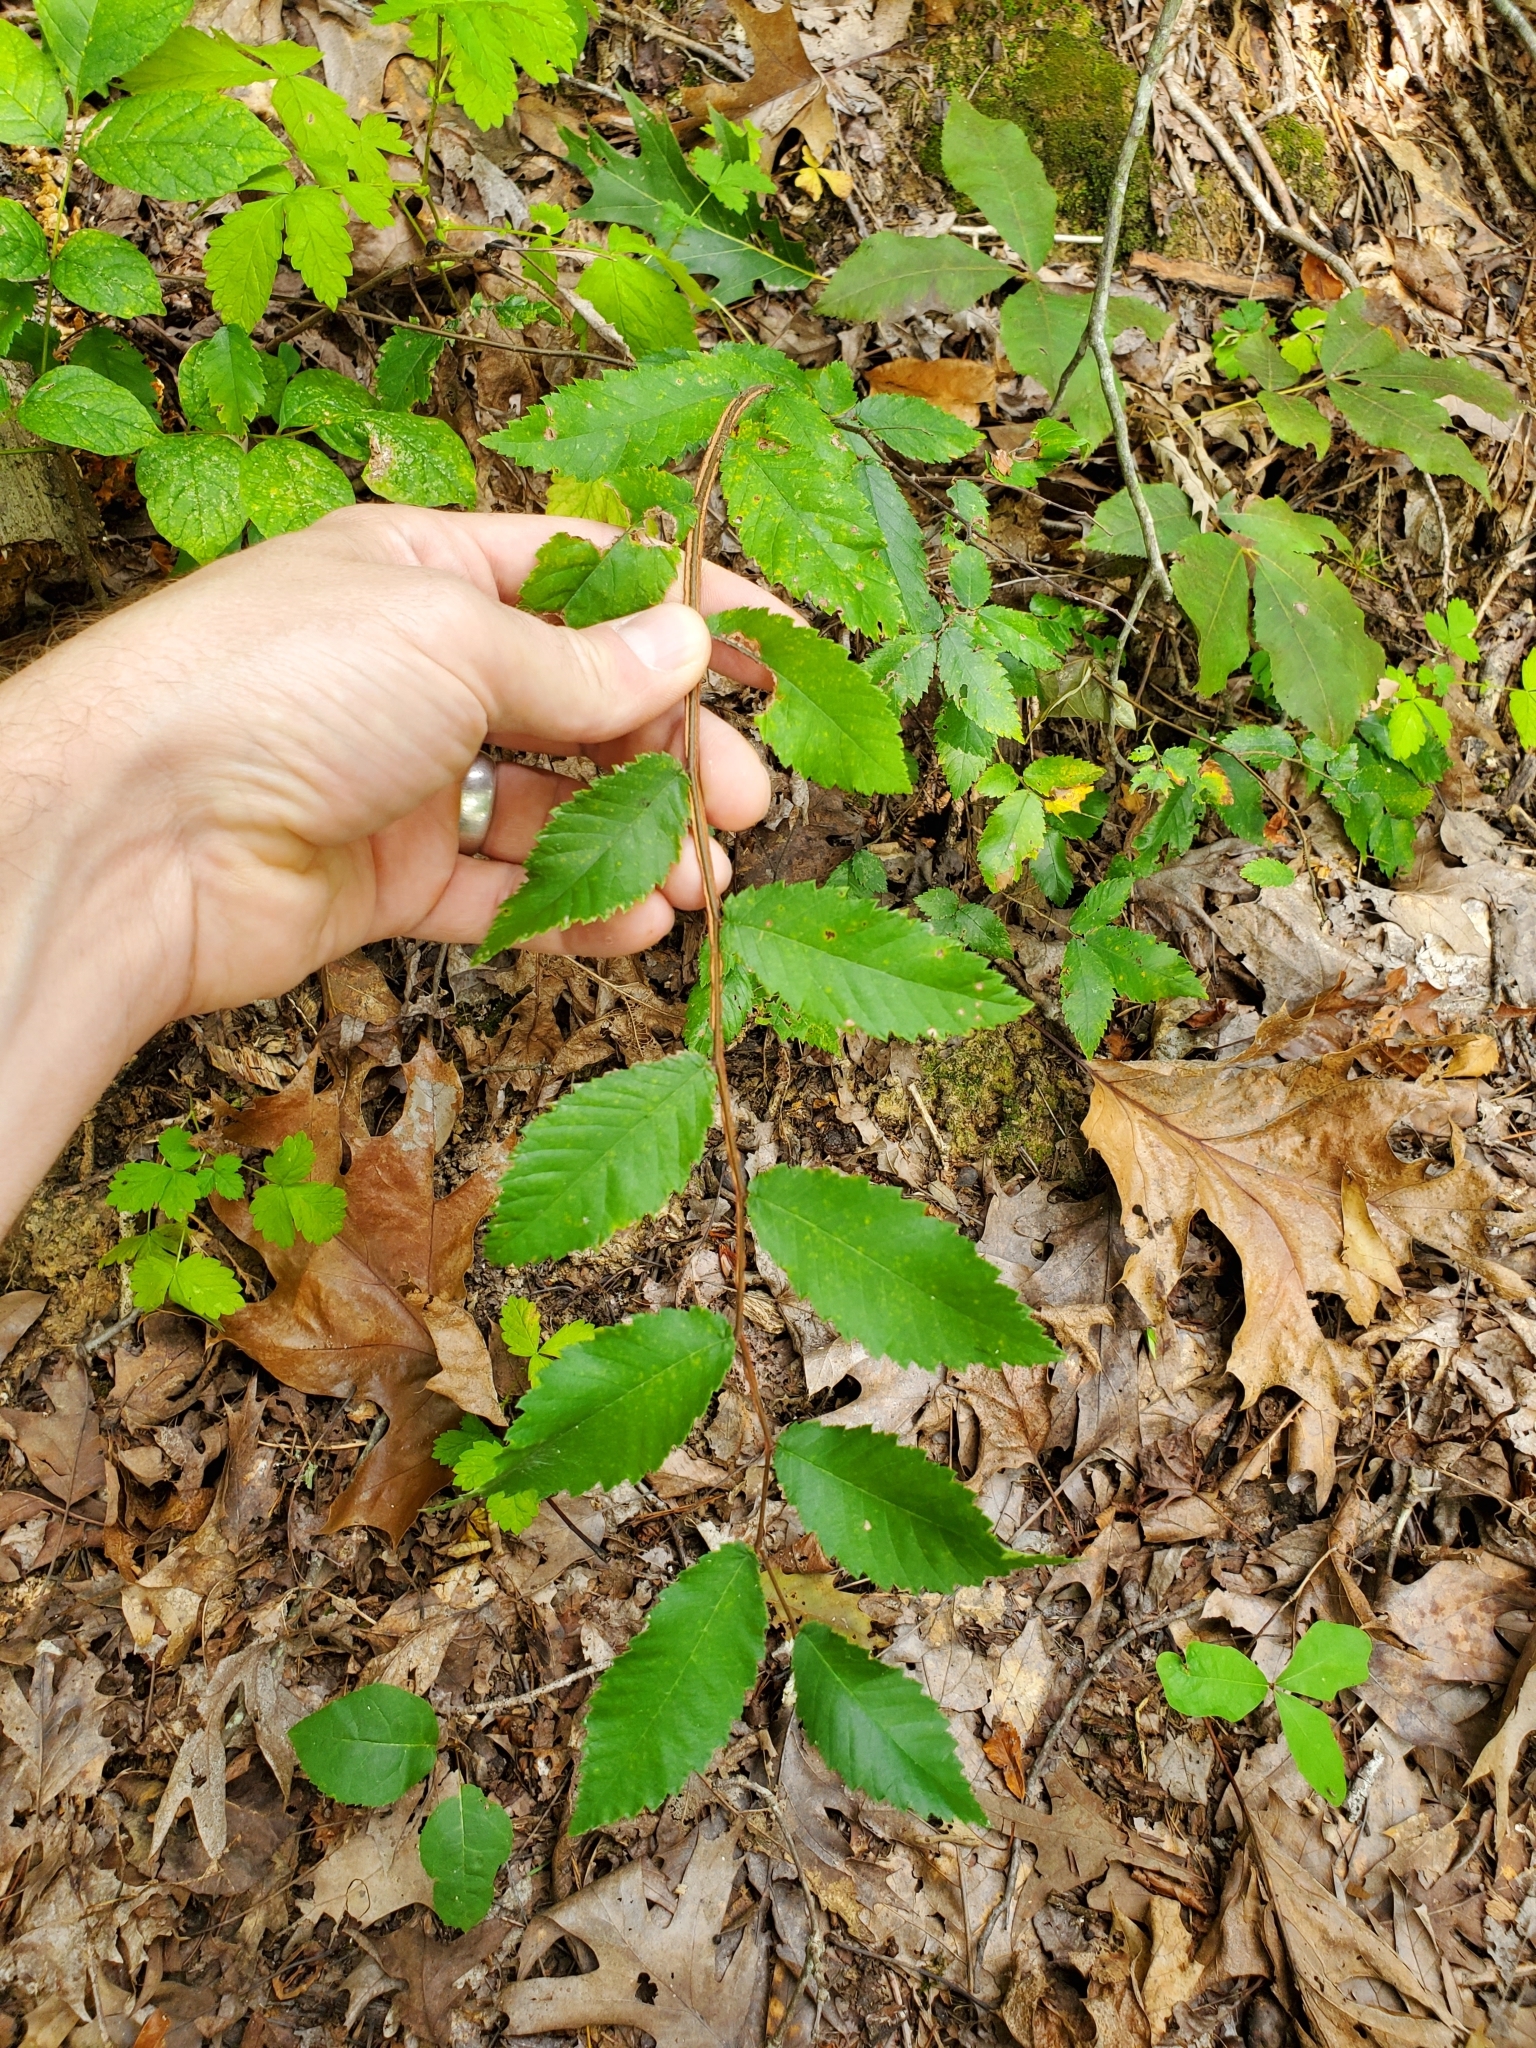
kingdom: Plantae
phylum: Tracheophyta
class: Magnoliopsida
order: Rosales
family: Ulmaceae
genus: Ulmus
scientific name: Ulmus alata
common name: Winged elm
